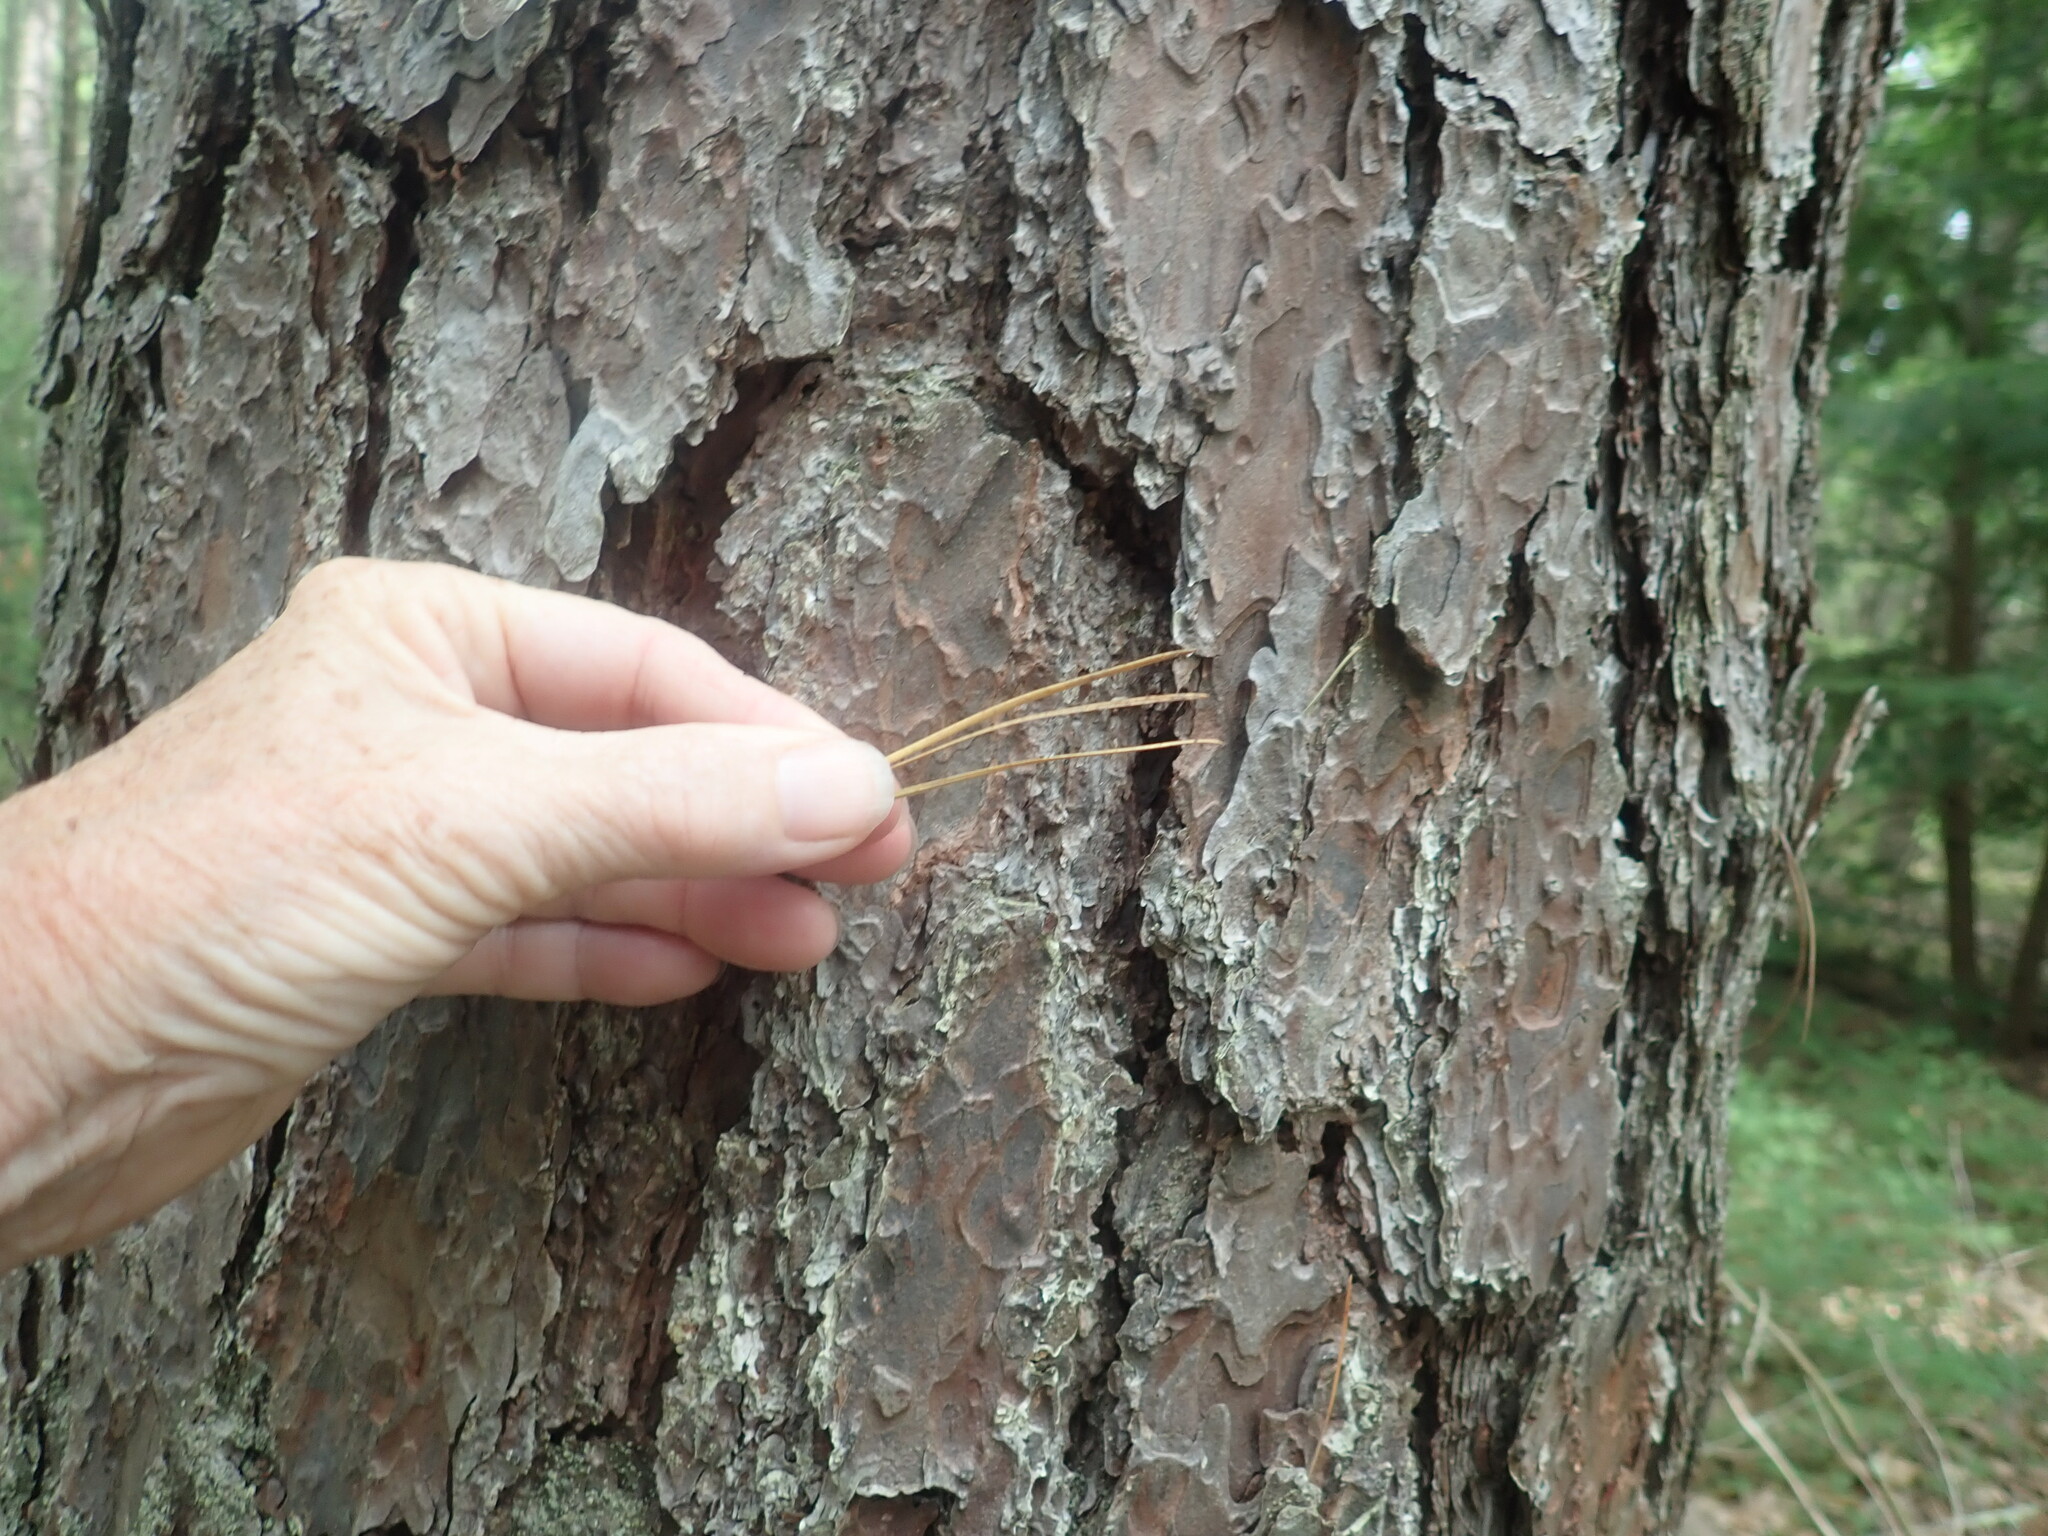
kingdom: Plantae
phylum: Tracheophyta
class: Pinopsida
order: Pinales
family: Pinaceae
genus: Pinus
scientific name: Pinus rigida
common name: Pitch pine
